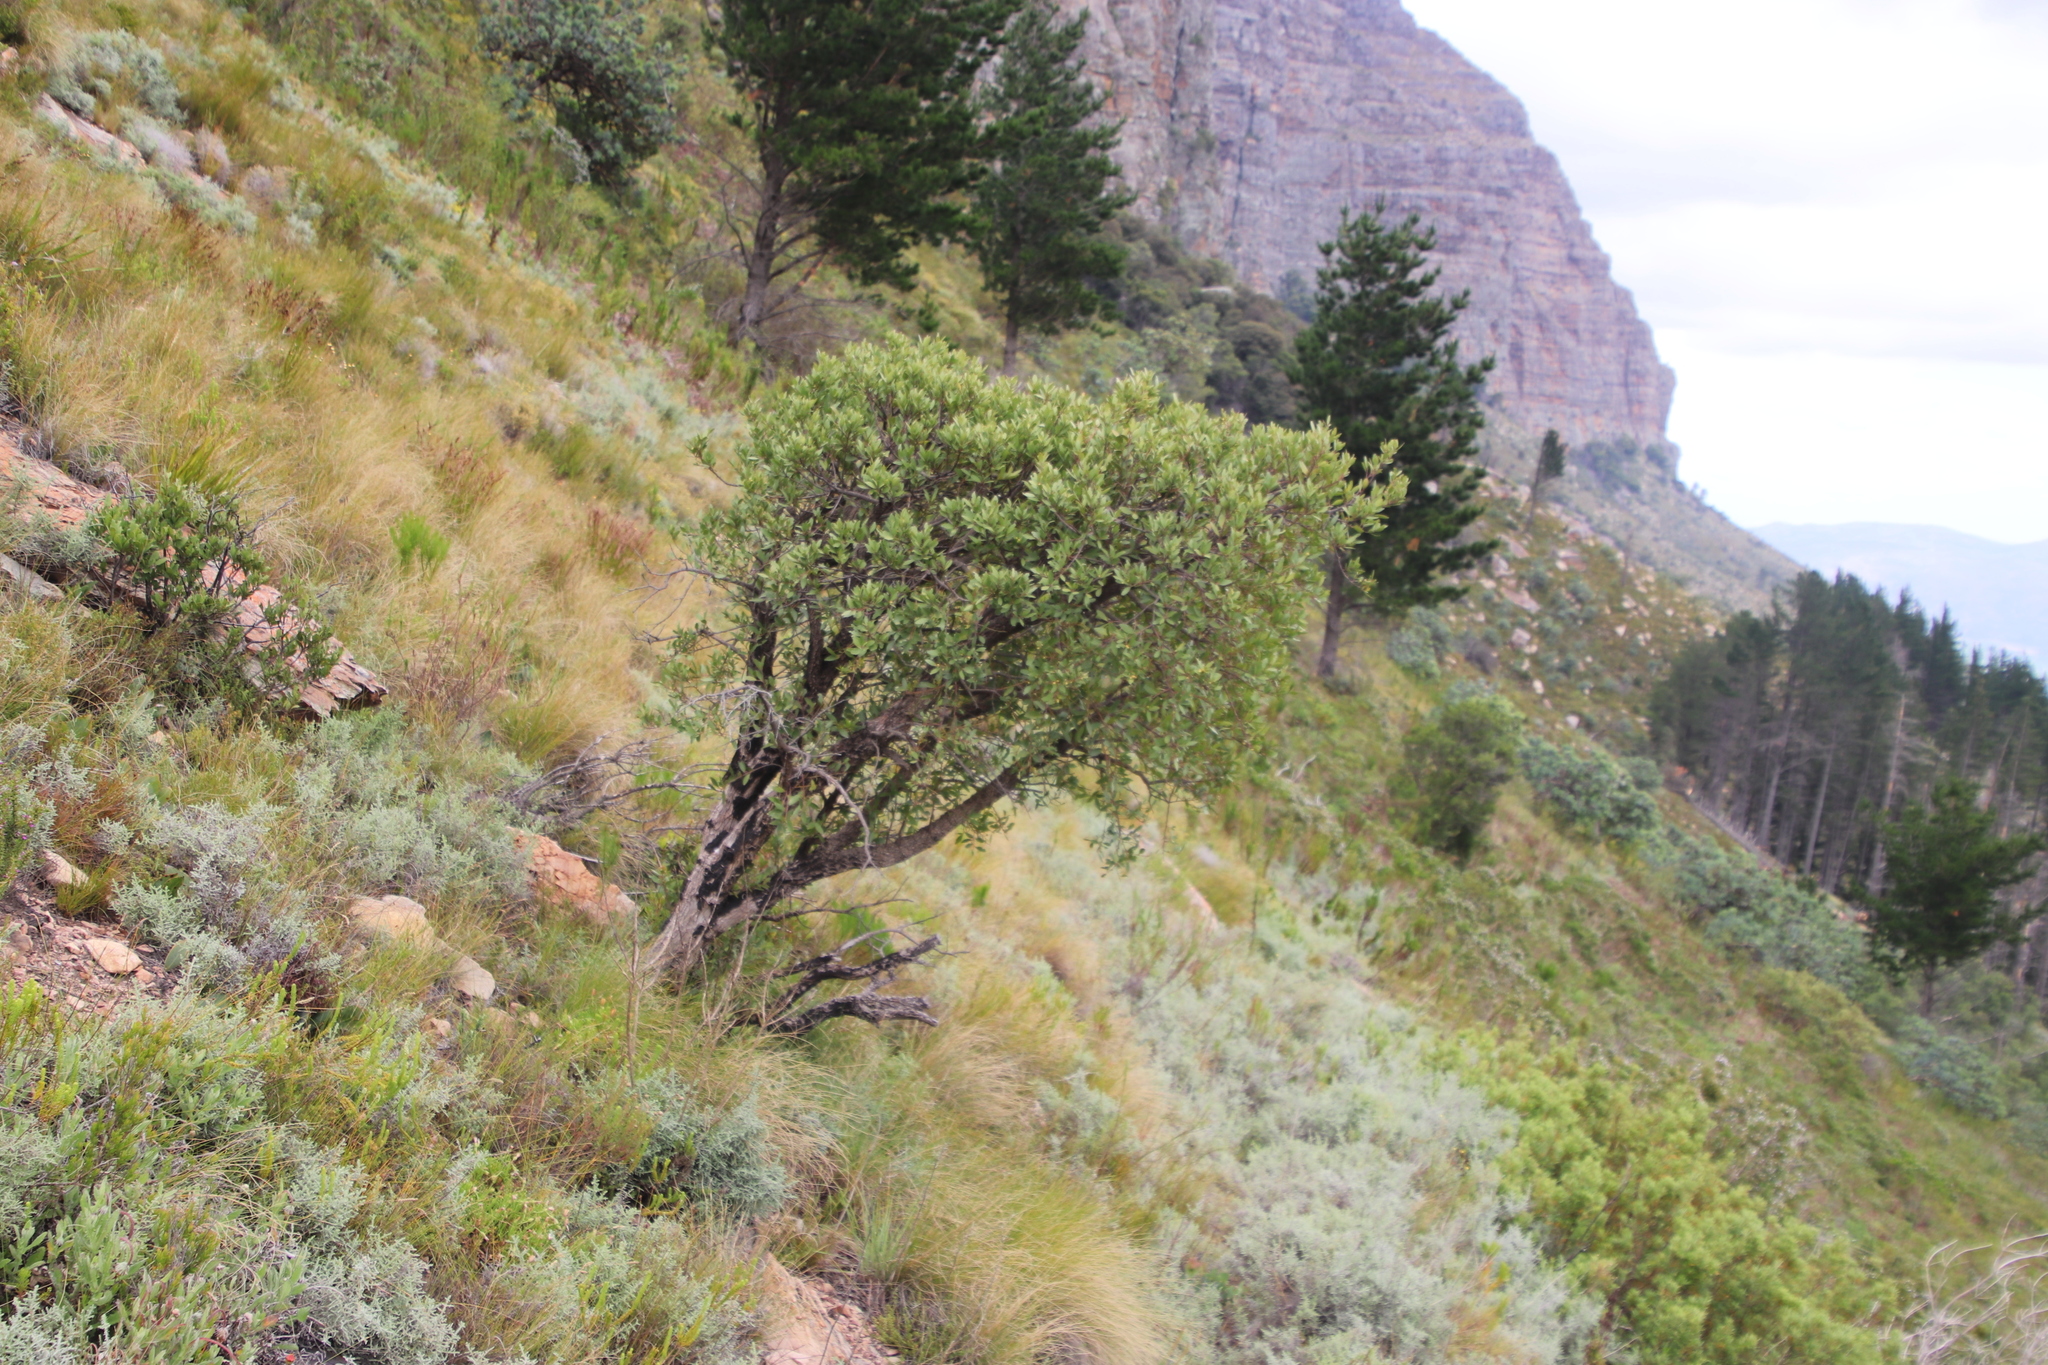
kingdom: Plantae
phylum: Tracheophyta
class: Magnoliopsida
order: Celastrales
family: Celastraceae
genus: Gymnosporia
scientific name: Gymnosporia laurina
